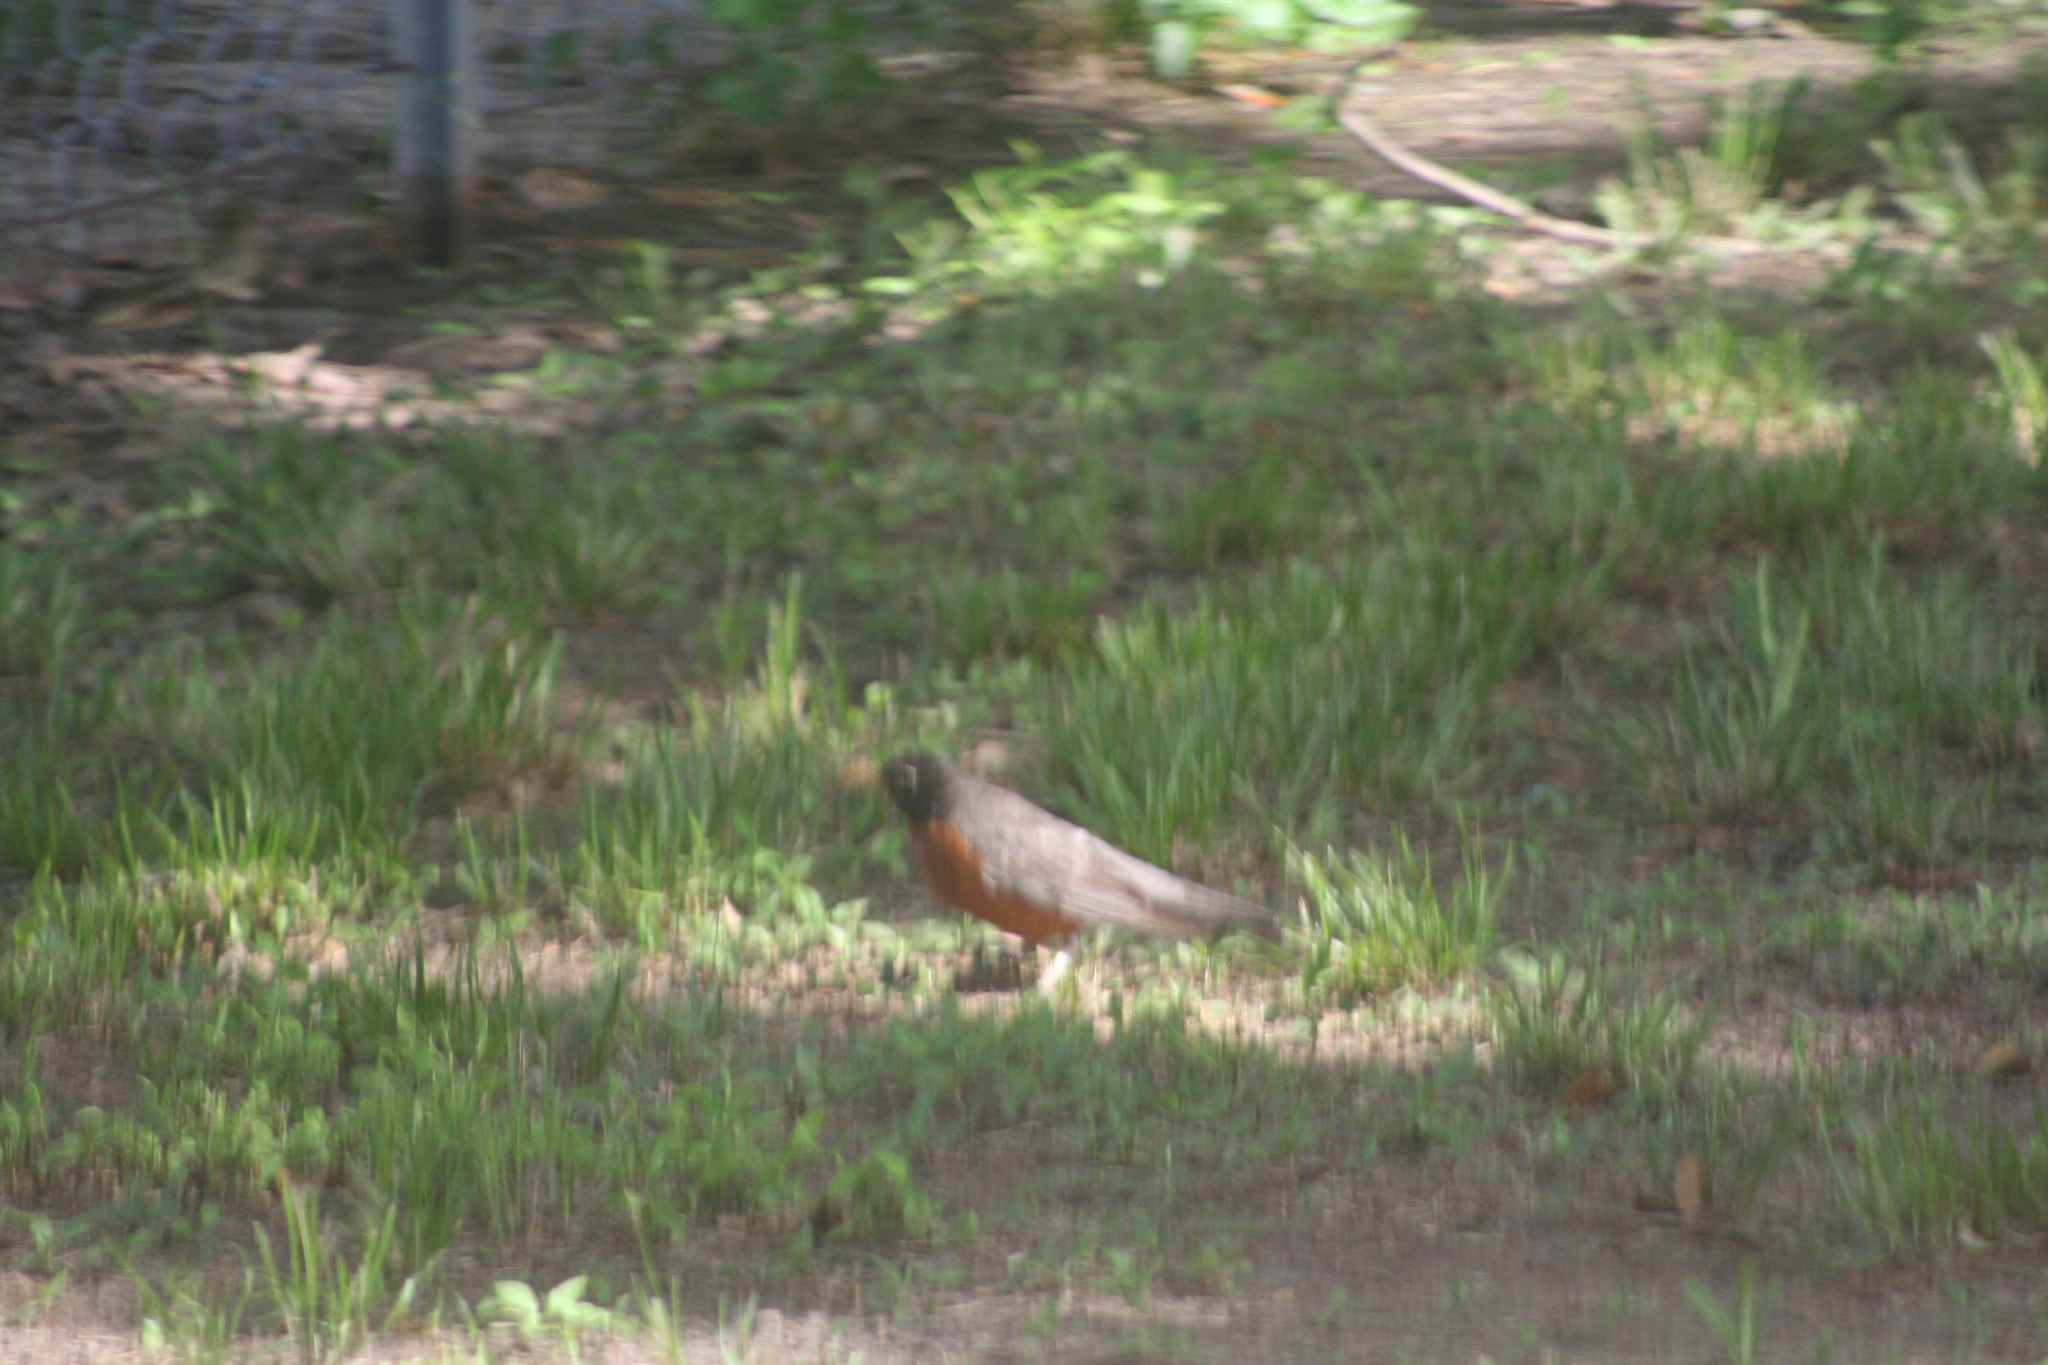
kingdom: Animalia
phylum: Chordata
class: Aves
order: Passeriformes
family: Turdidae
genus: Turdus
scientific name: Turdus migratorius
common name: American robin
